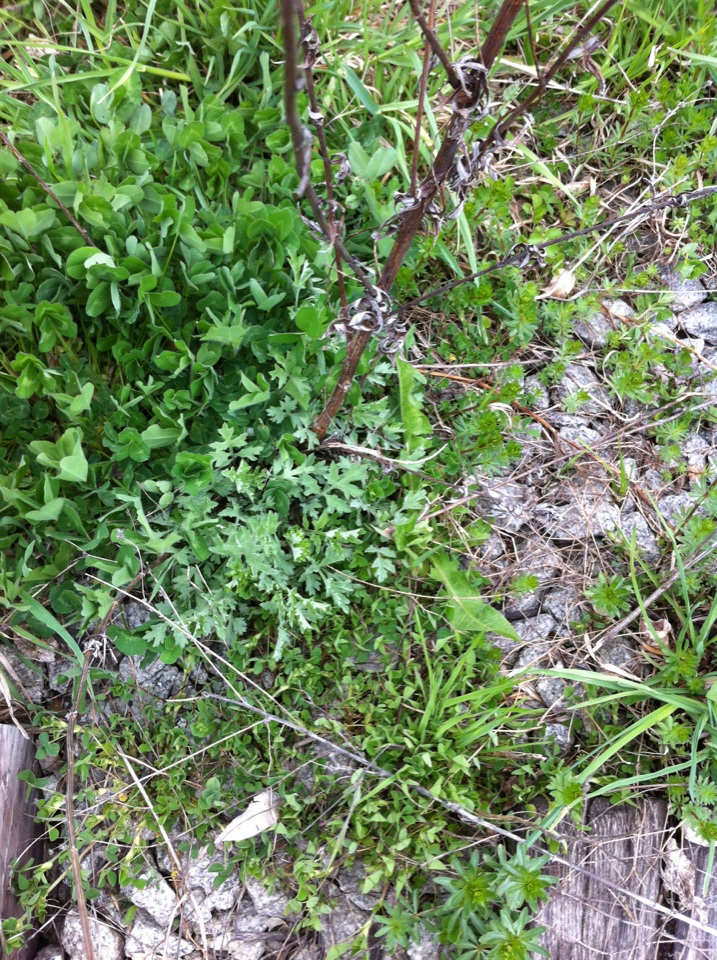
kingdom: Plantae
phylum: Tracheophyta
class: Magnoliopsida
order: Asterales
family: Asteraceae
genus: Artemisia
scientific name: Artemisia vulgaris
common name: Mugwort
